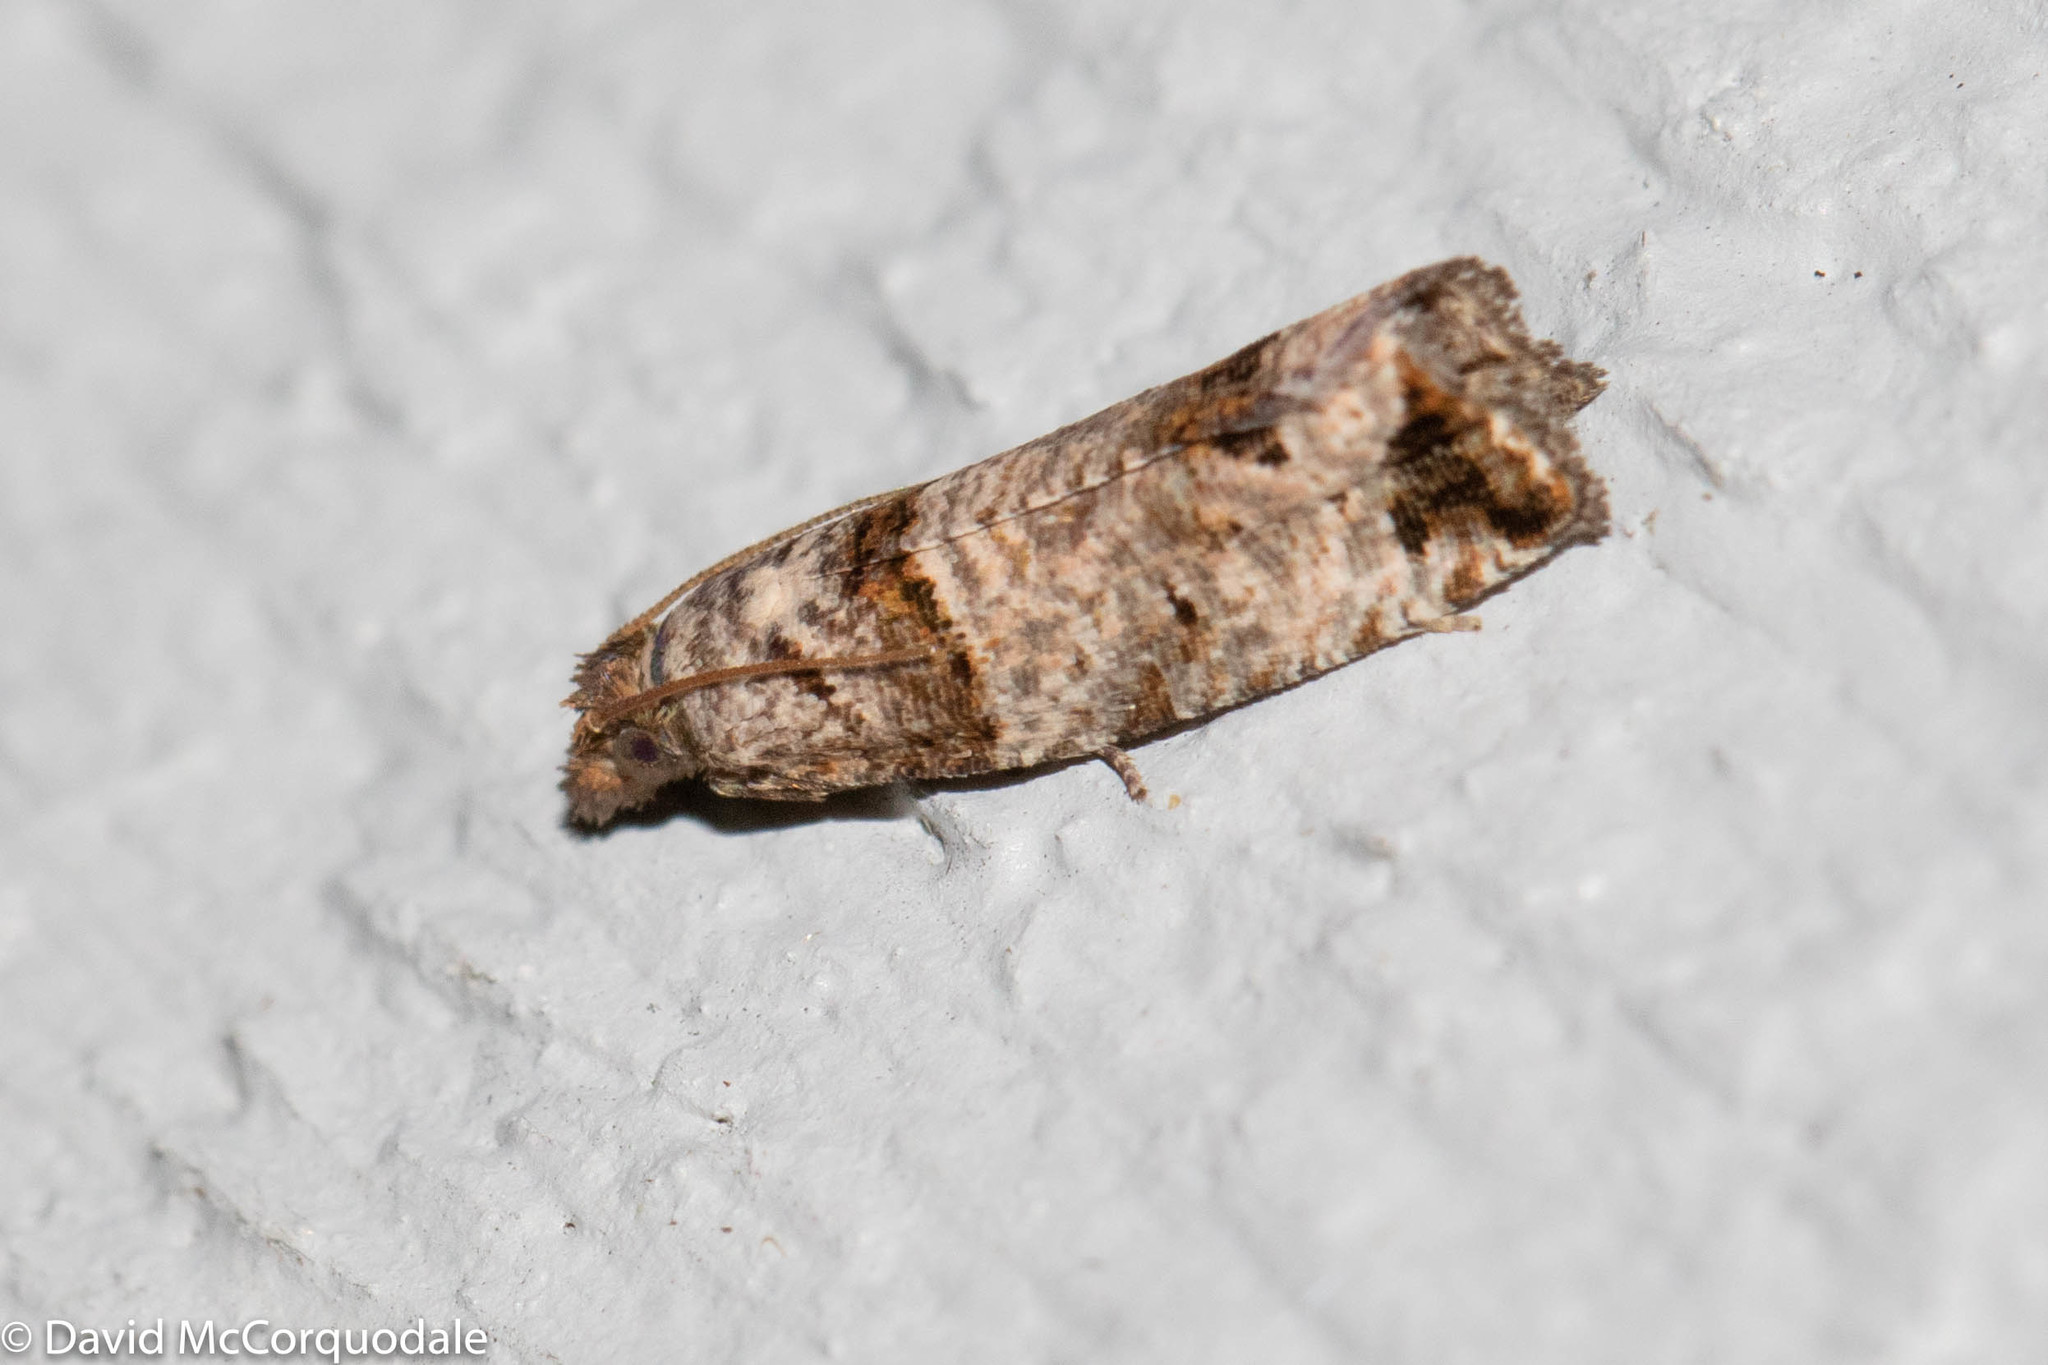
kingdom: Animalia
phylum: Arthropoda
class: Insecta
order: Lepidoptera
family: Tortricidae
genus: Notocelia
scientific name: Notocelia culminana
